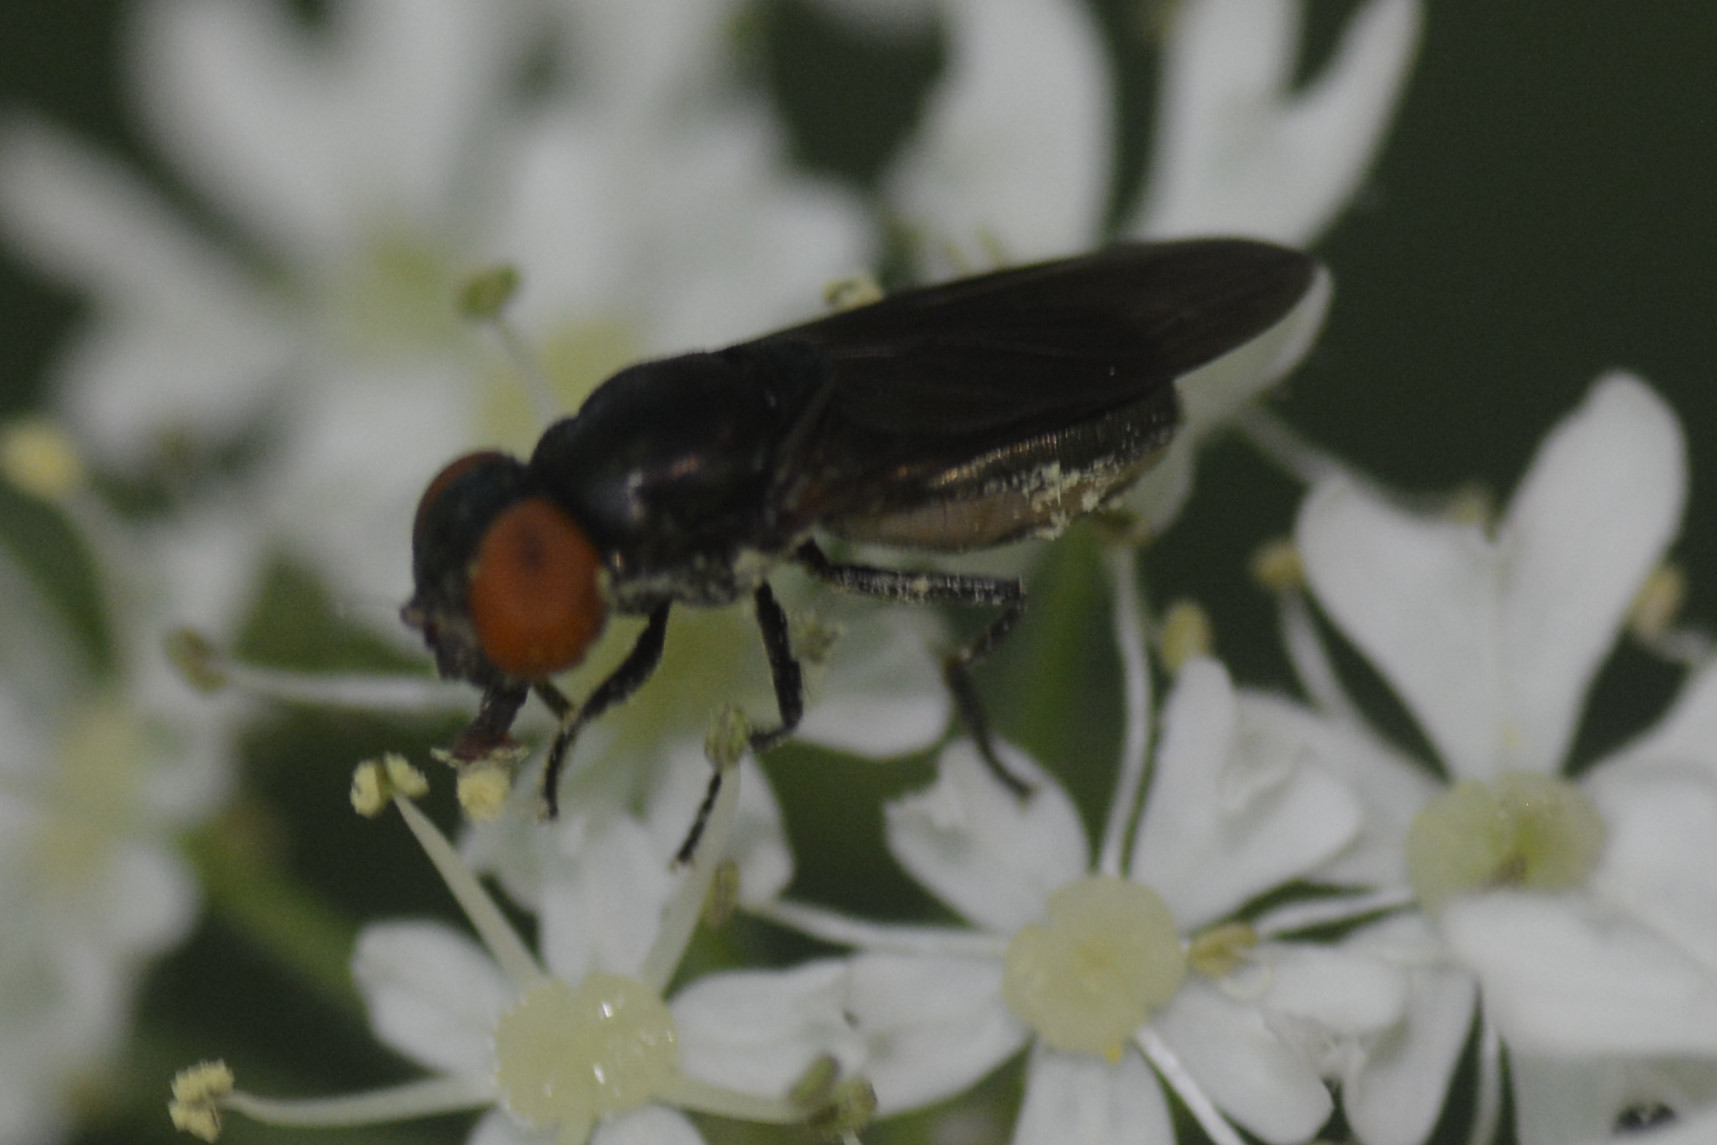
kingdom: Animalia
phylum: Arthropoda
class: Insecta
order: Diptera
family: Syrphidae
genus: Chrysogaster
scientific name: Chrysogaster solstitialis
